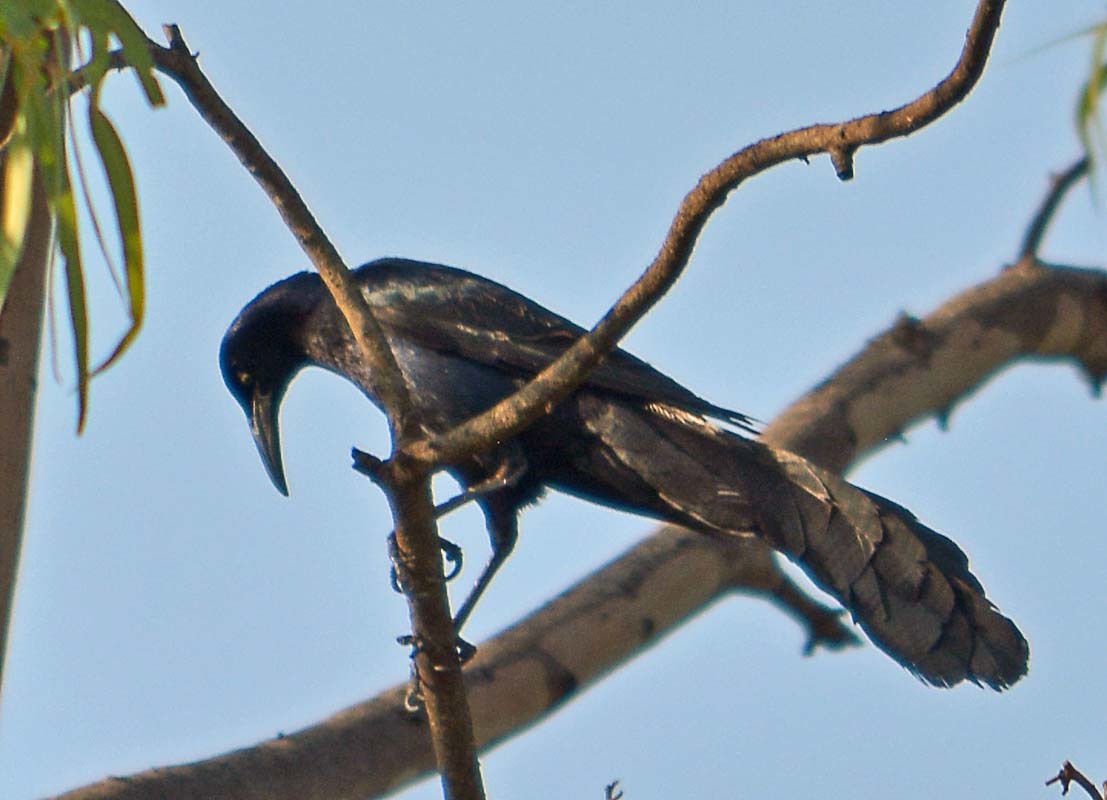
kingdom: Animalia
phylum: Chordata
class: Aves
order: Passeriformes
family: Icteridae
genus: Quiscalus
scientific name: Quiscalus mexicanus
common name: Great-tailed grackle
